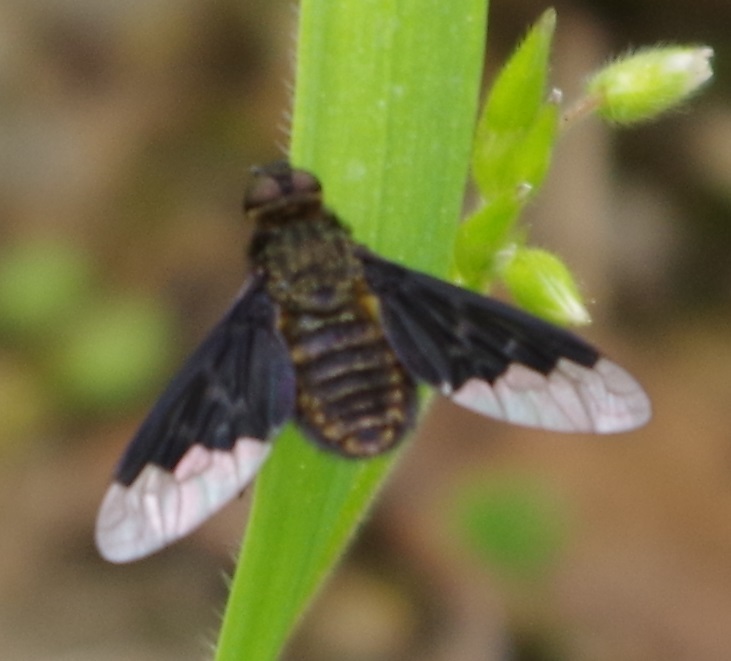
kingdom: Animalia
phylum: Arthropoda
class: Insecta
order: Diptera
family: Bombyliidae
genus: Hemipenthes
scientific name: Hemipenthes morio
